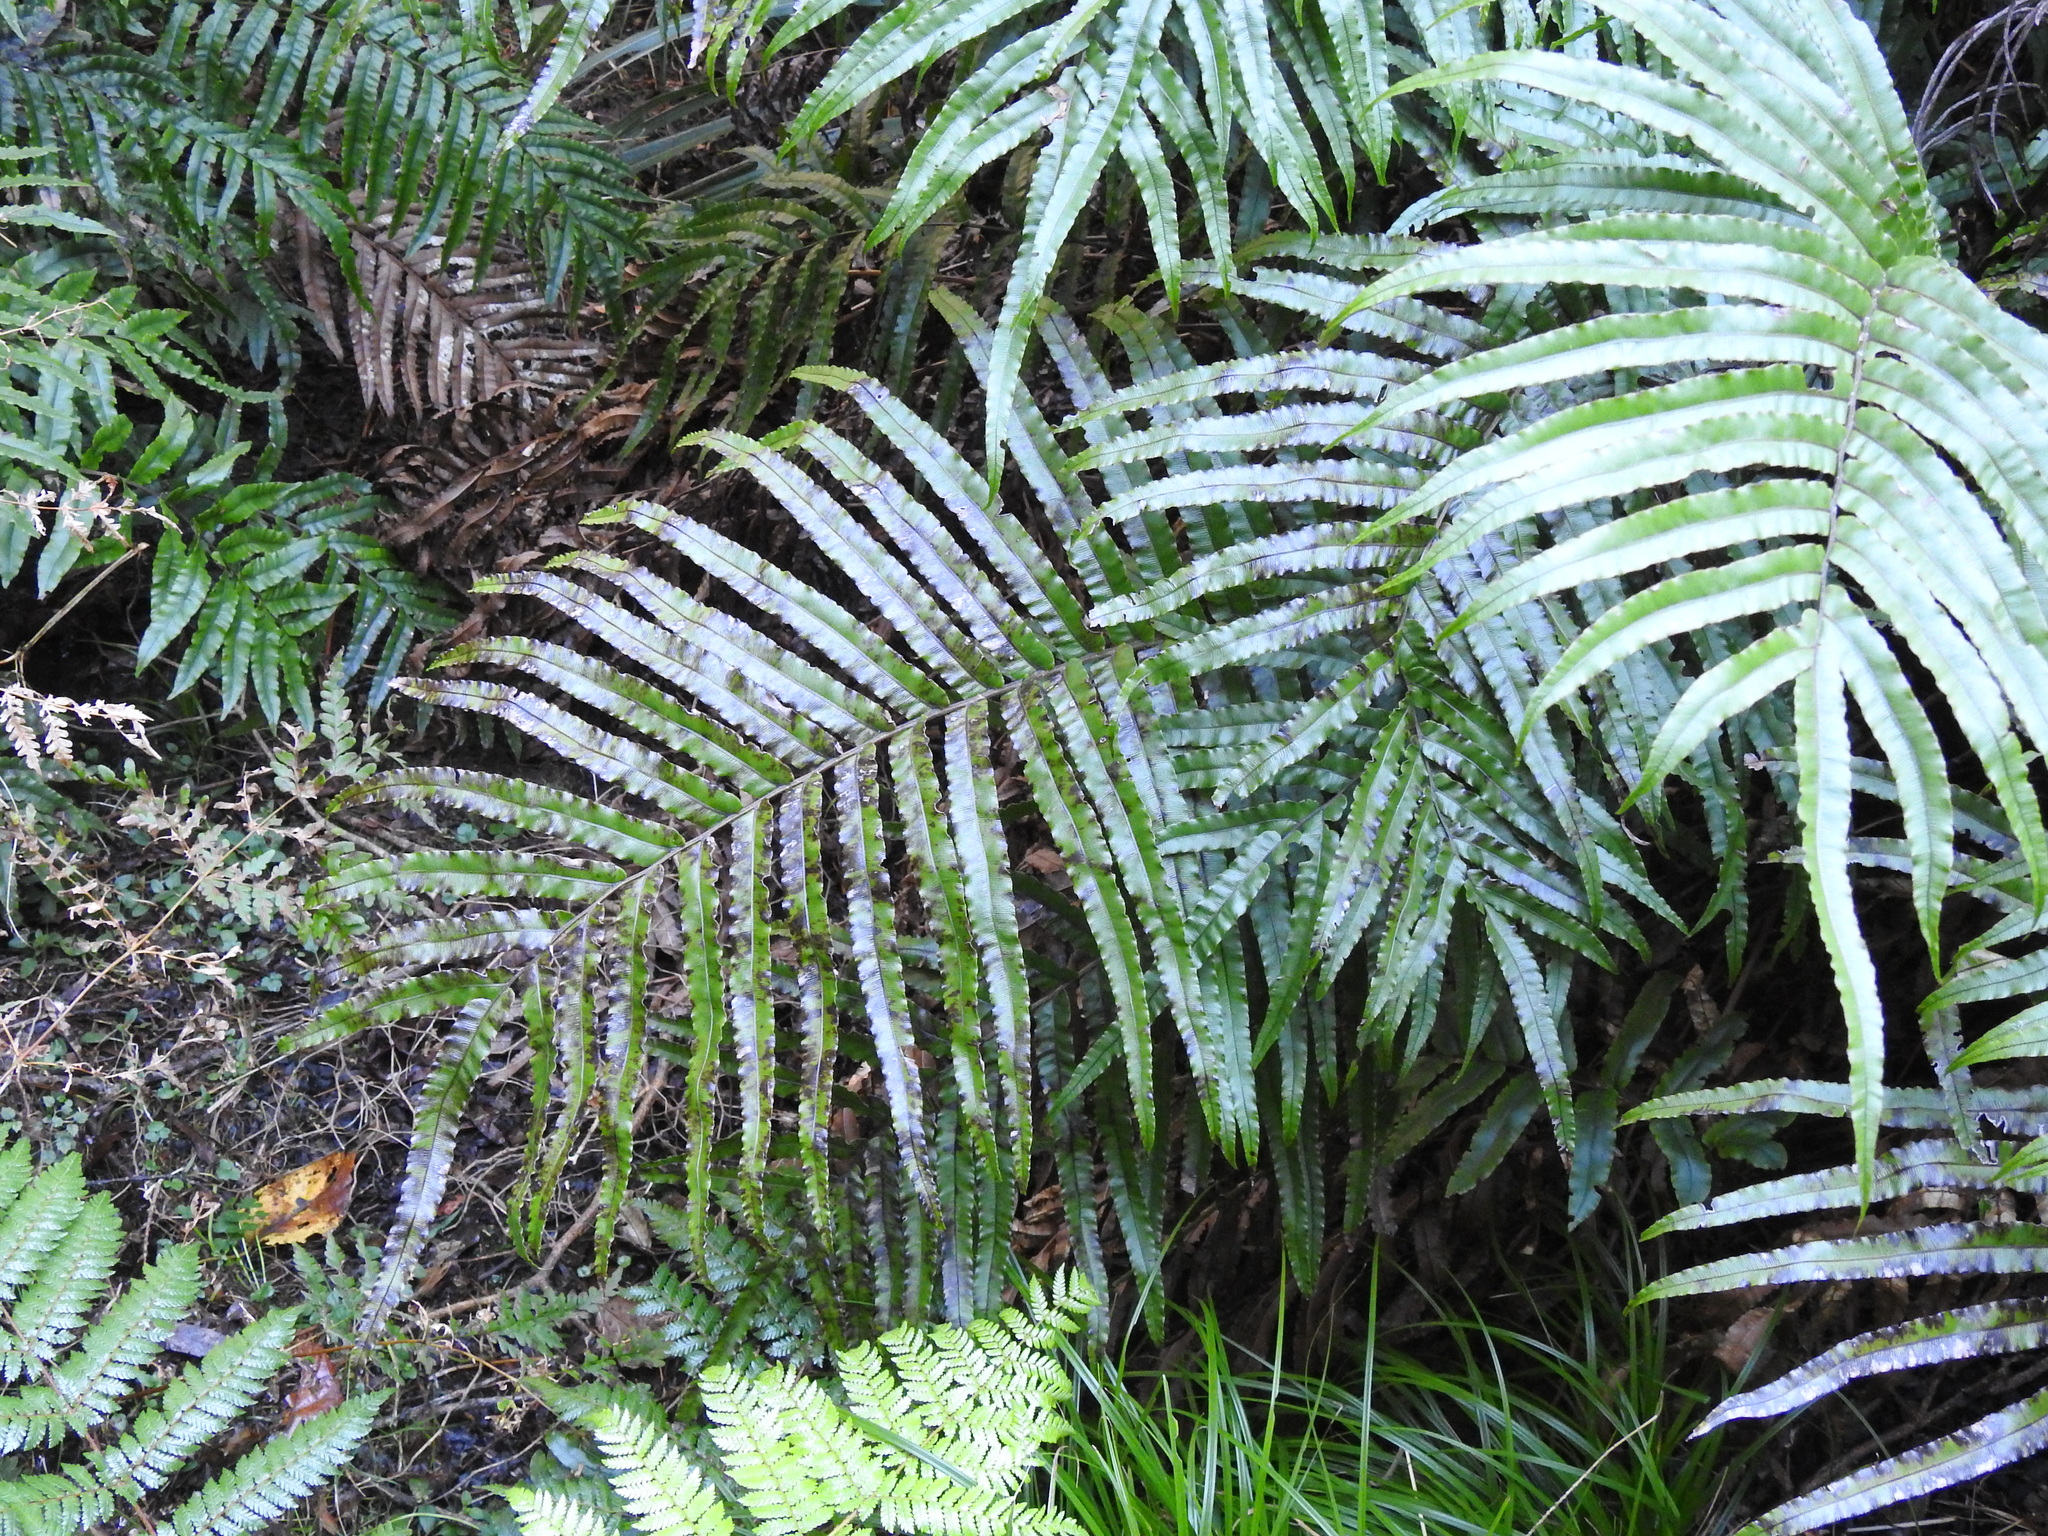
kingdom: Plantae
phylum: Tracheophyta
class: Polypodiopsida
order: Polypodiales
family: Blechnaceae
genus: Parablechnum
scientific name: Parablechnum novae-zelandiae
